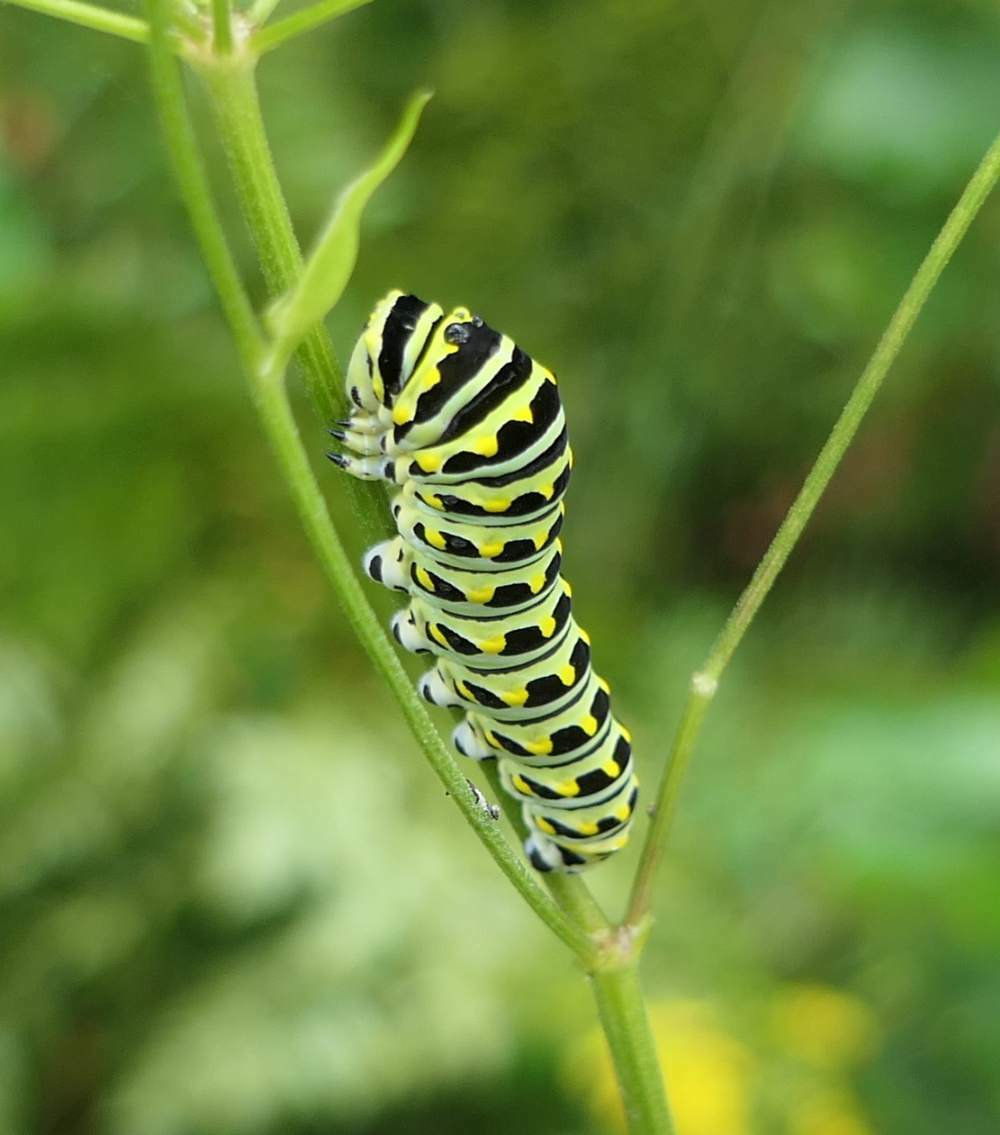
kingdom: Animalia
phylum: Arthropoda
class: Insecta
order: Lepidoptera
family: Papilionidae
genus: Papilio
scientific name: Papilio polyxenes
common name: Black swallowtail
